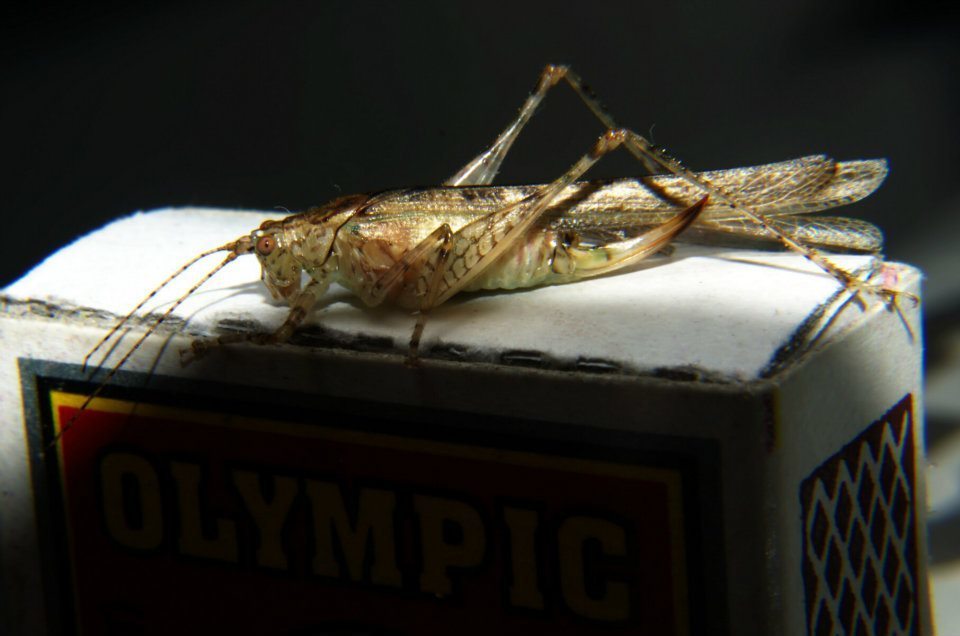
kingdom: Animalia
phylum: Arthropoda
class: Insecta
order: Orthoptera
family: Tettigoniidae
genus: Teratura
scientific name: Teratura maculata
